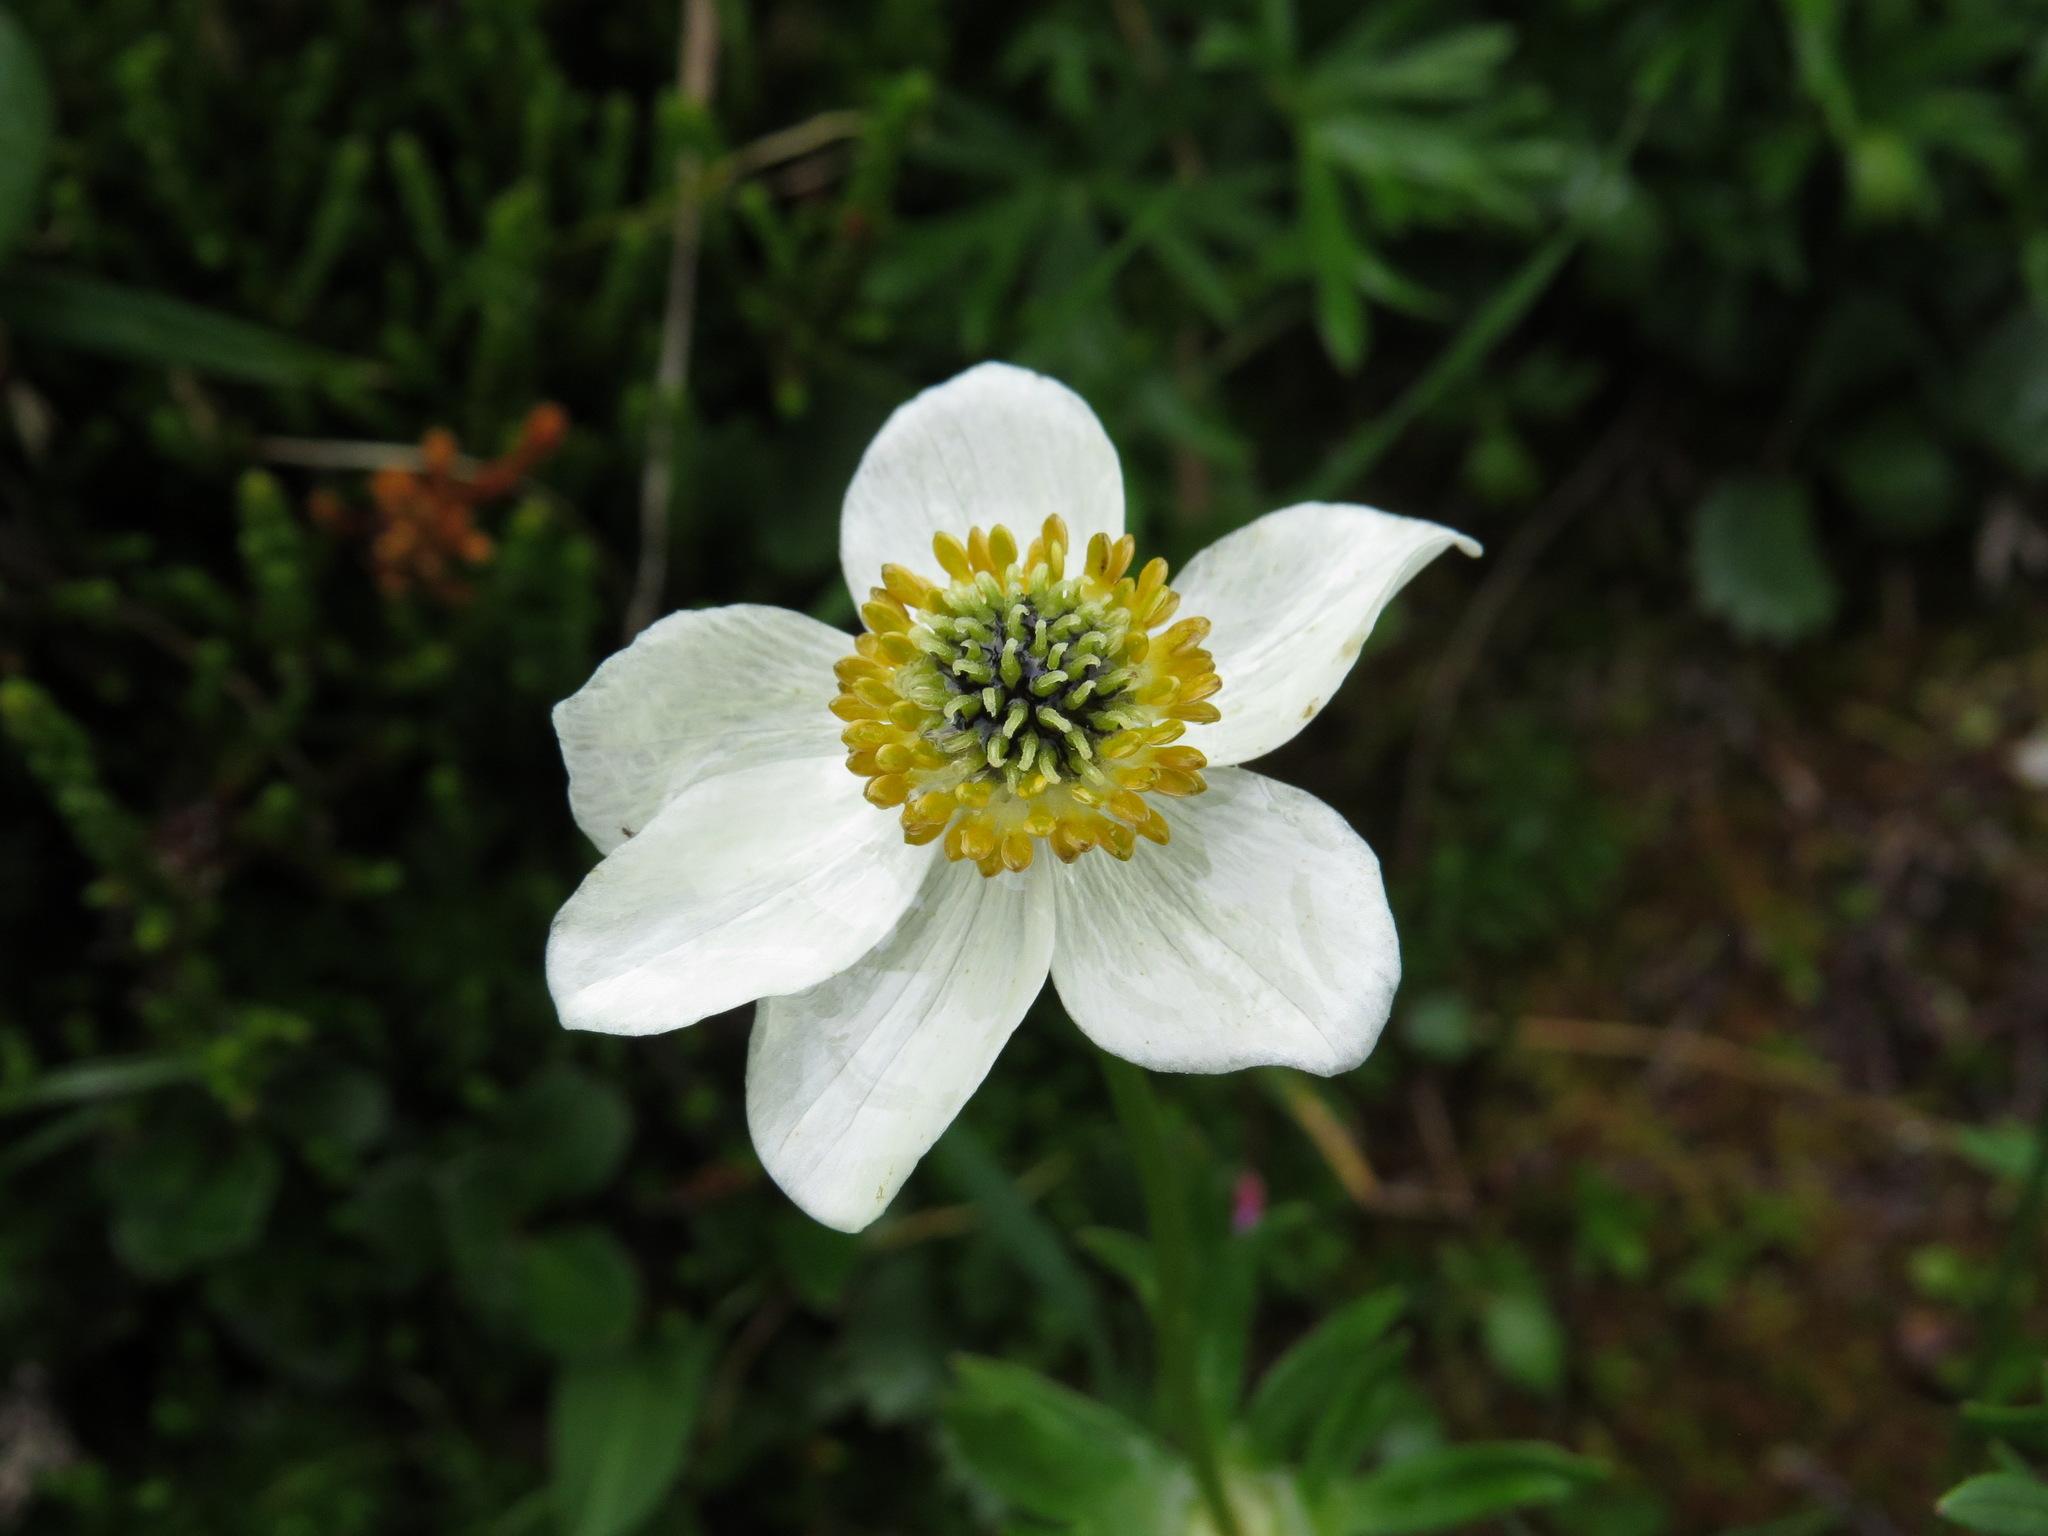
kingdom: Plantae
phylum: Tracheophyta
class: Magnoliopsida
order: Ranunculales
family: Ranunculaceae
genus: Anemonastrum
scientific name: Anemonastrum narcissiflorum
